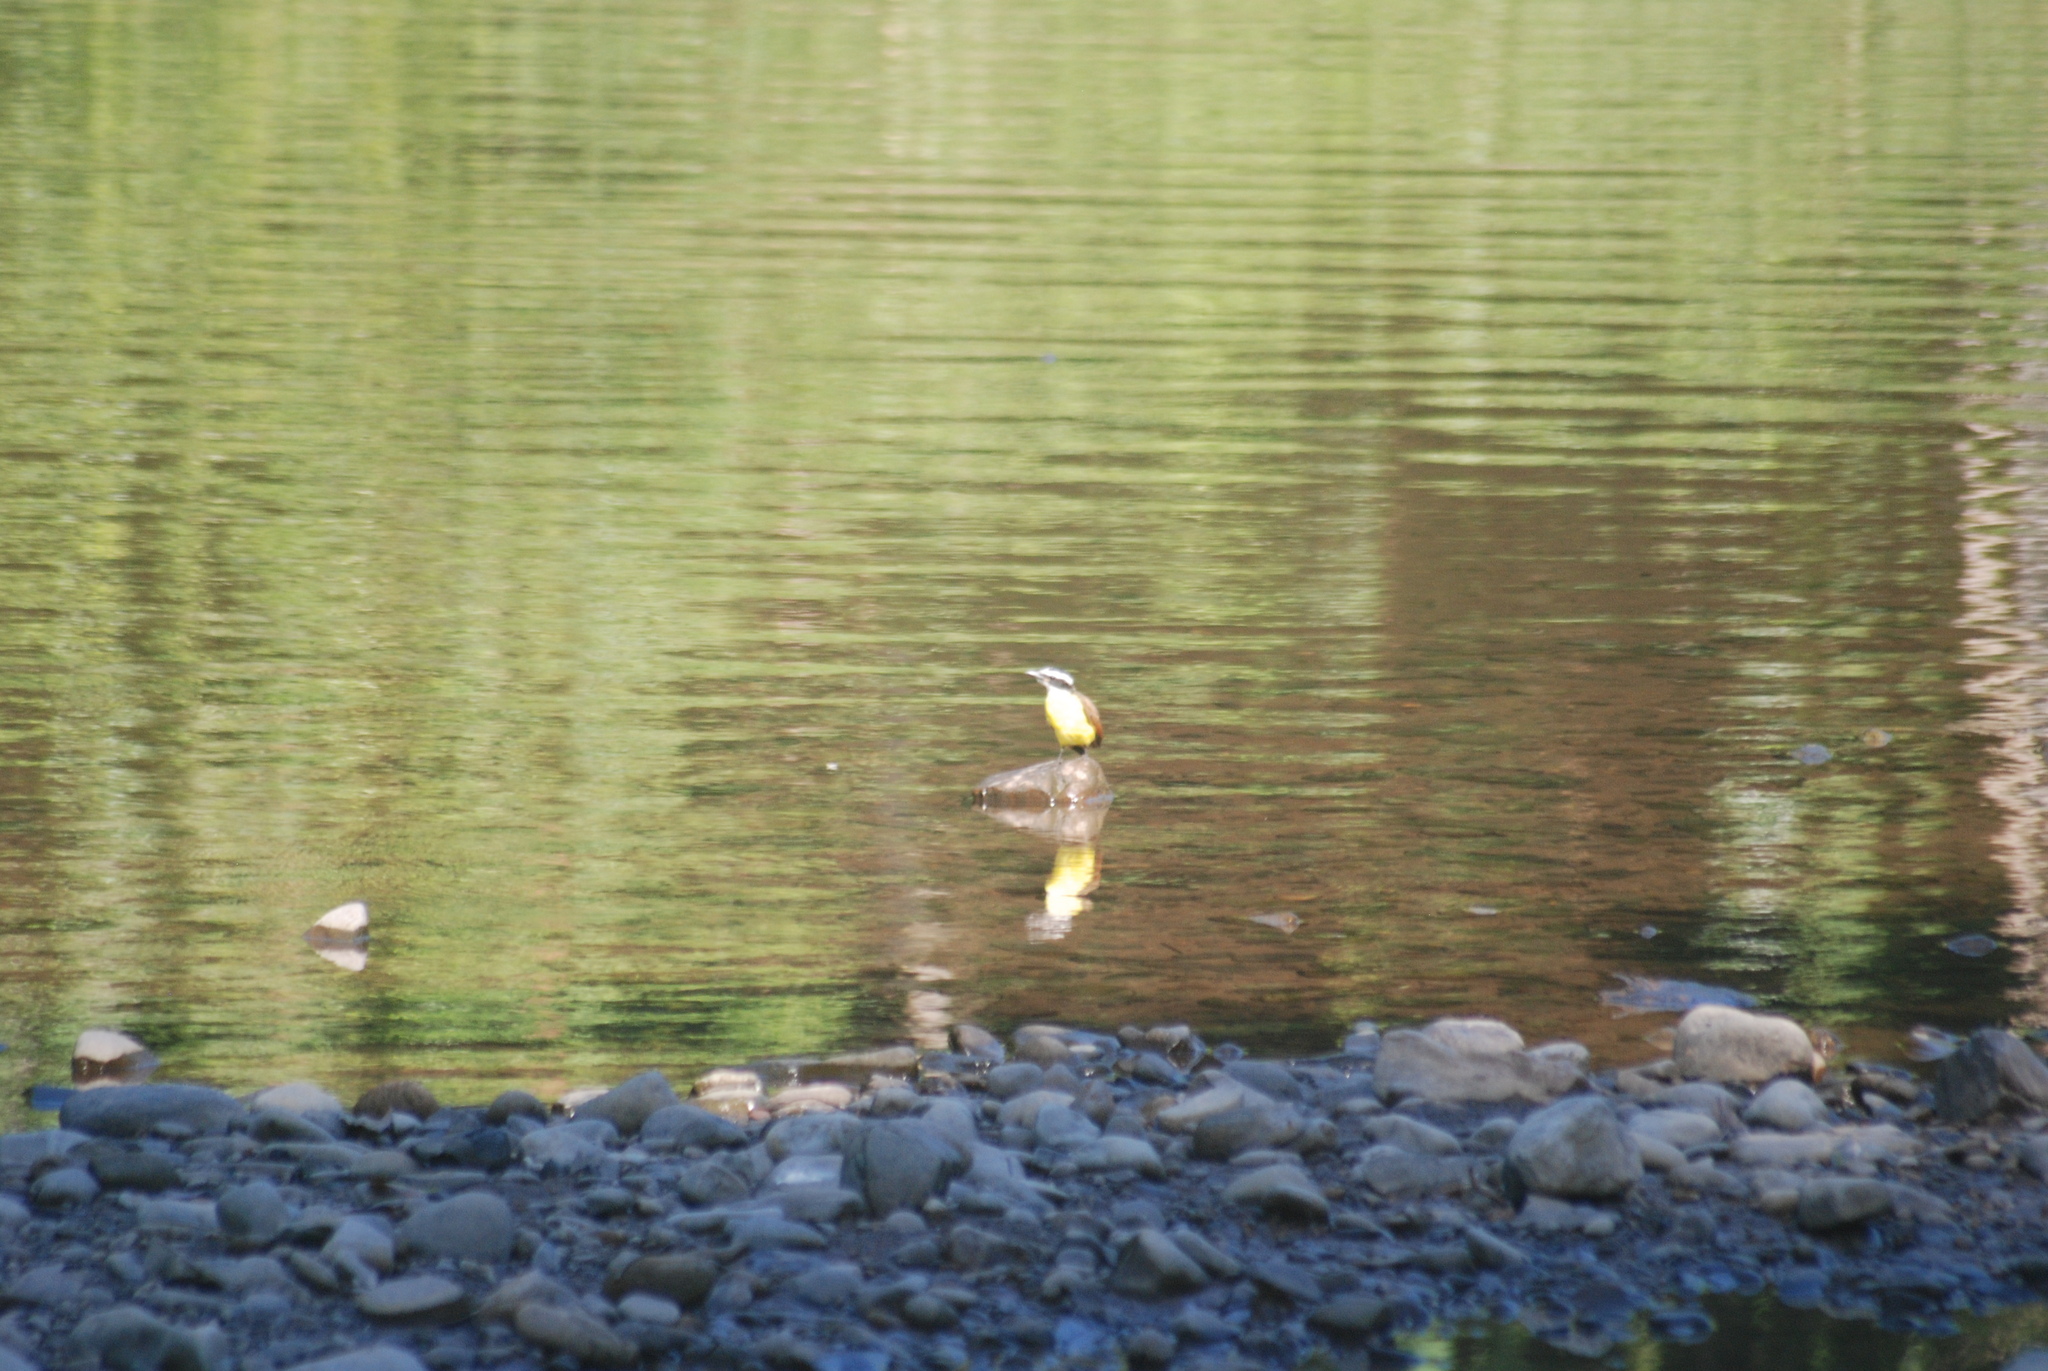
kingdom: Animalia
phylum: Chordata
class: Aves
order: Passeriformes
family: Tyrannidae
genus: Pitangus
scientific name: Pitangus sulphuratus
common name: Great kiskadee
